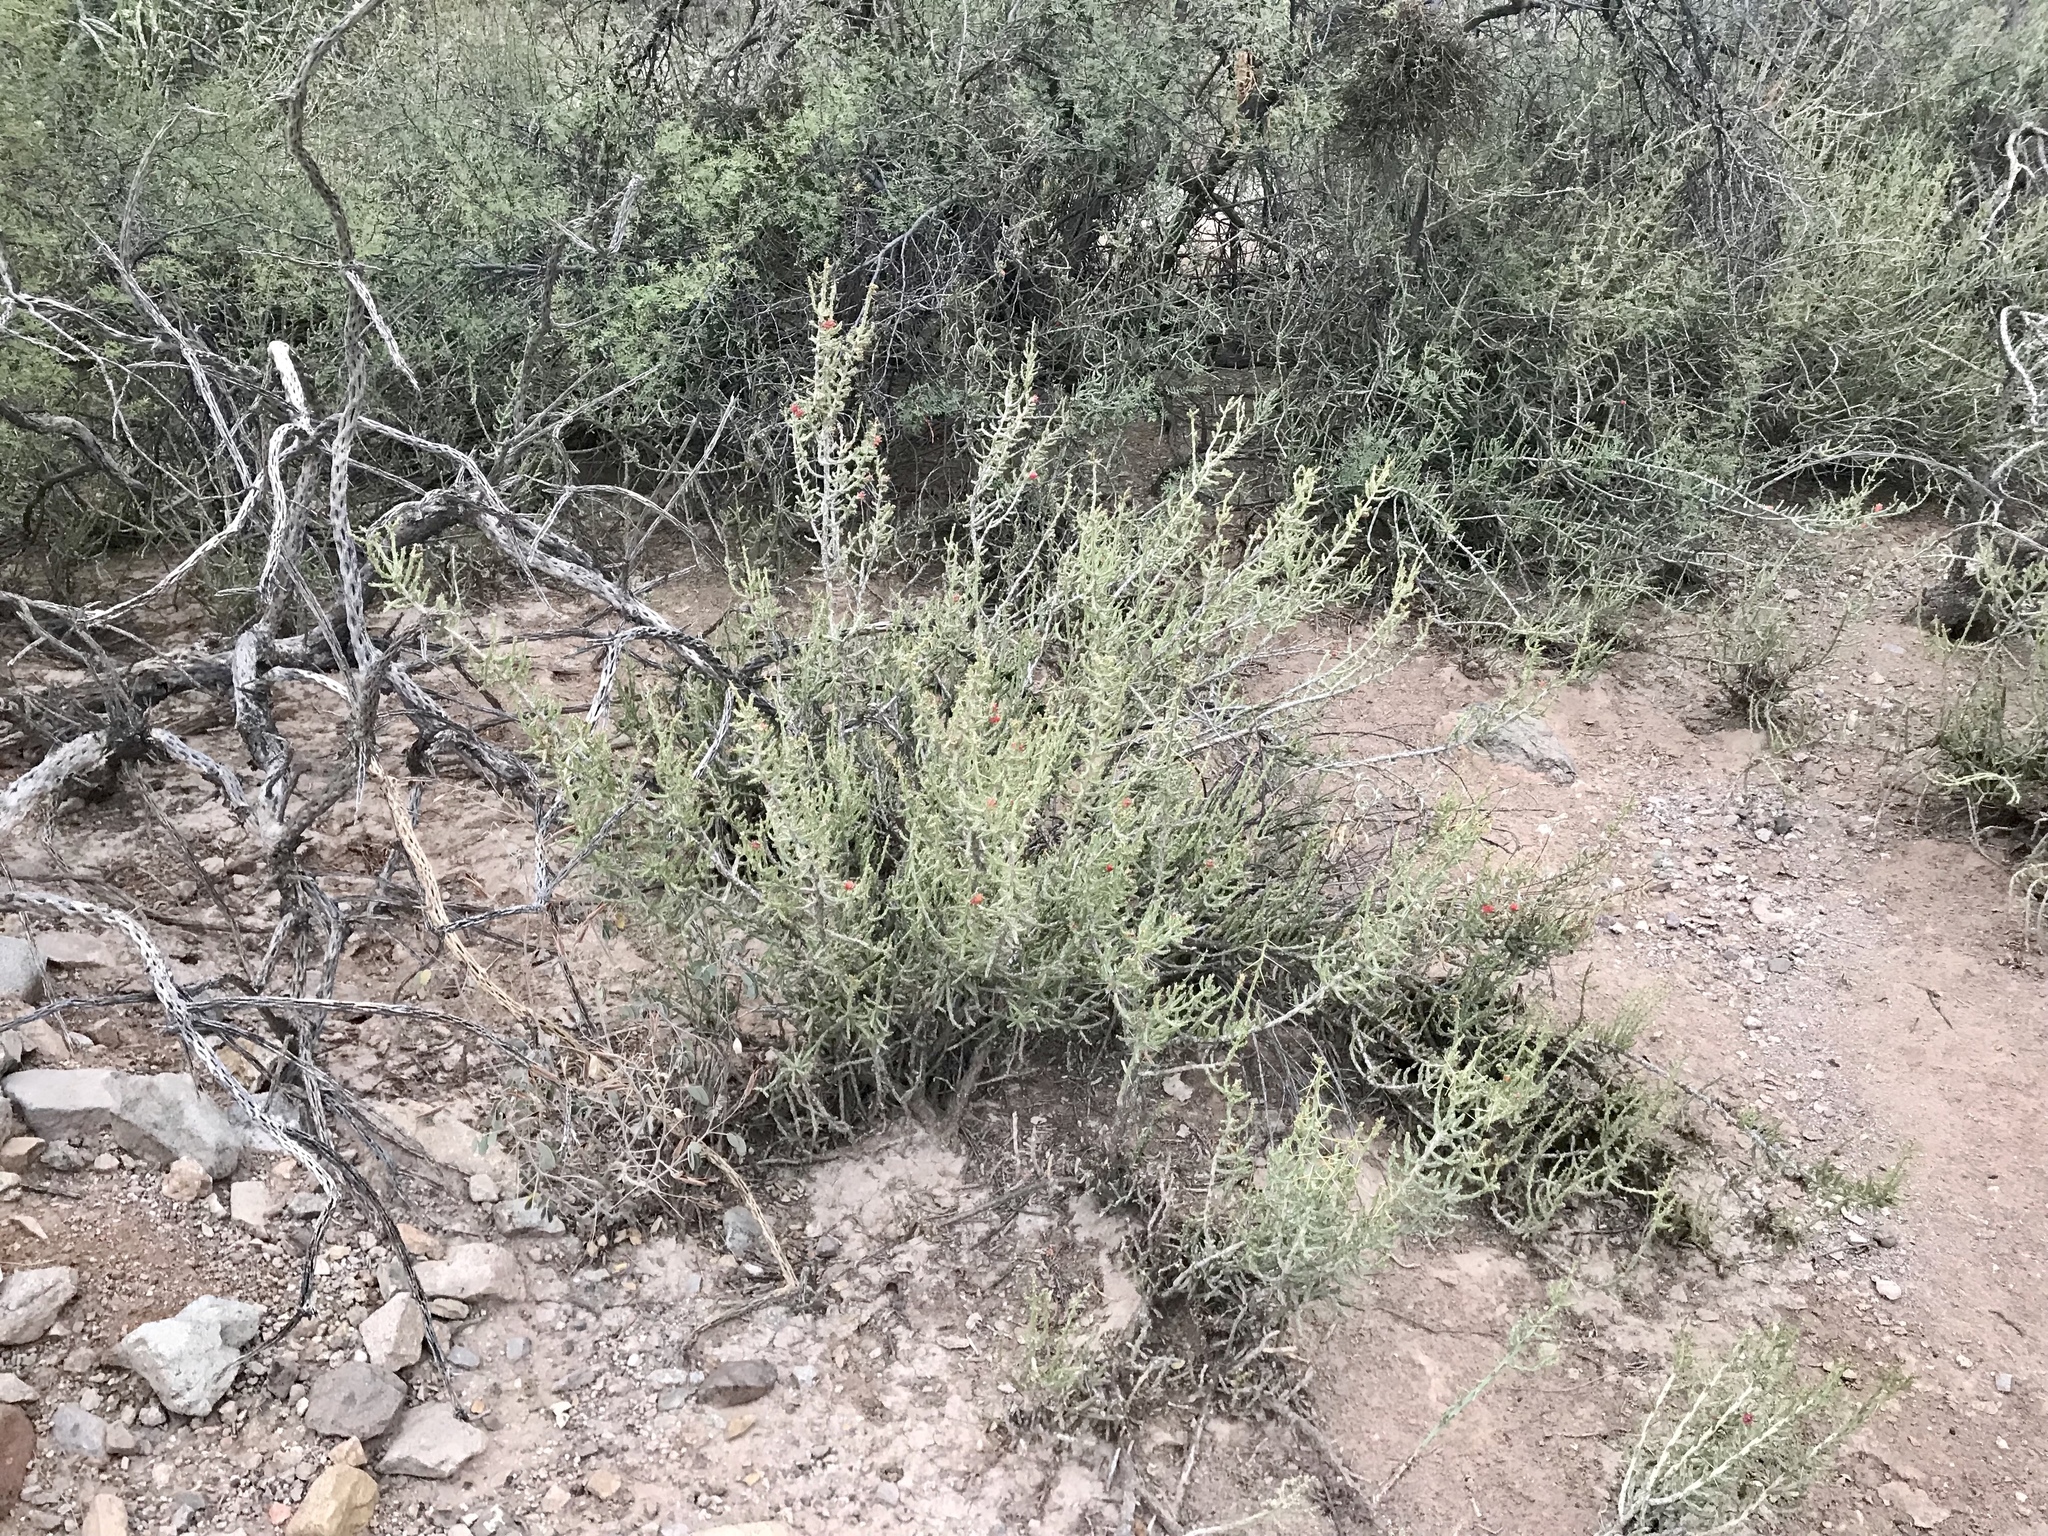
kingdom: Plantae
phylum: Tracheophyta
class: Magnoliopsida
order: Caryophyllales
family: Cactaceae
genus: Cylindropuntia
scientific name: Cylindropuntia leptocaulis
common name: Christmas cactus
